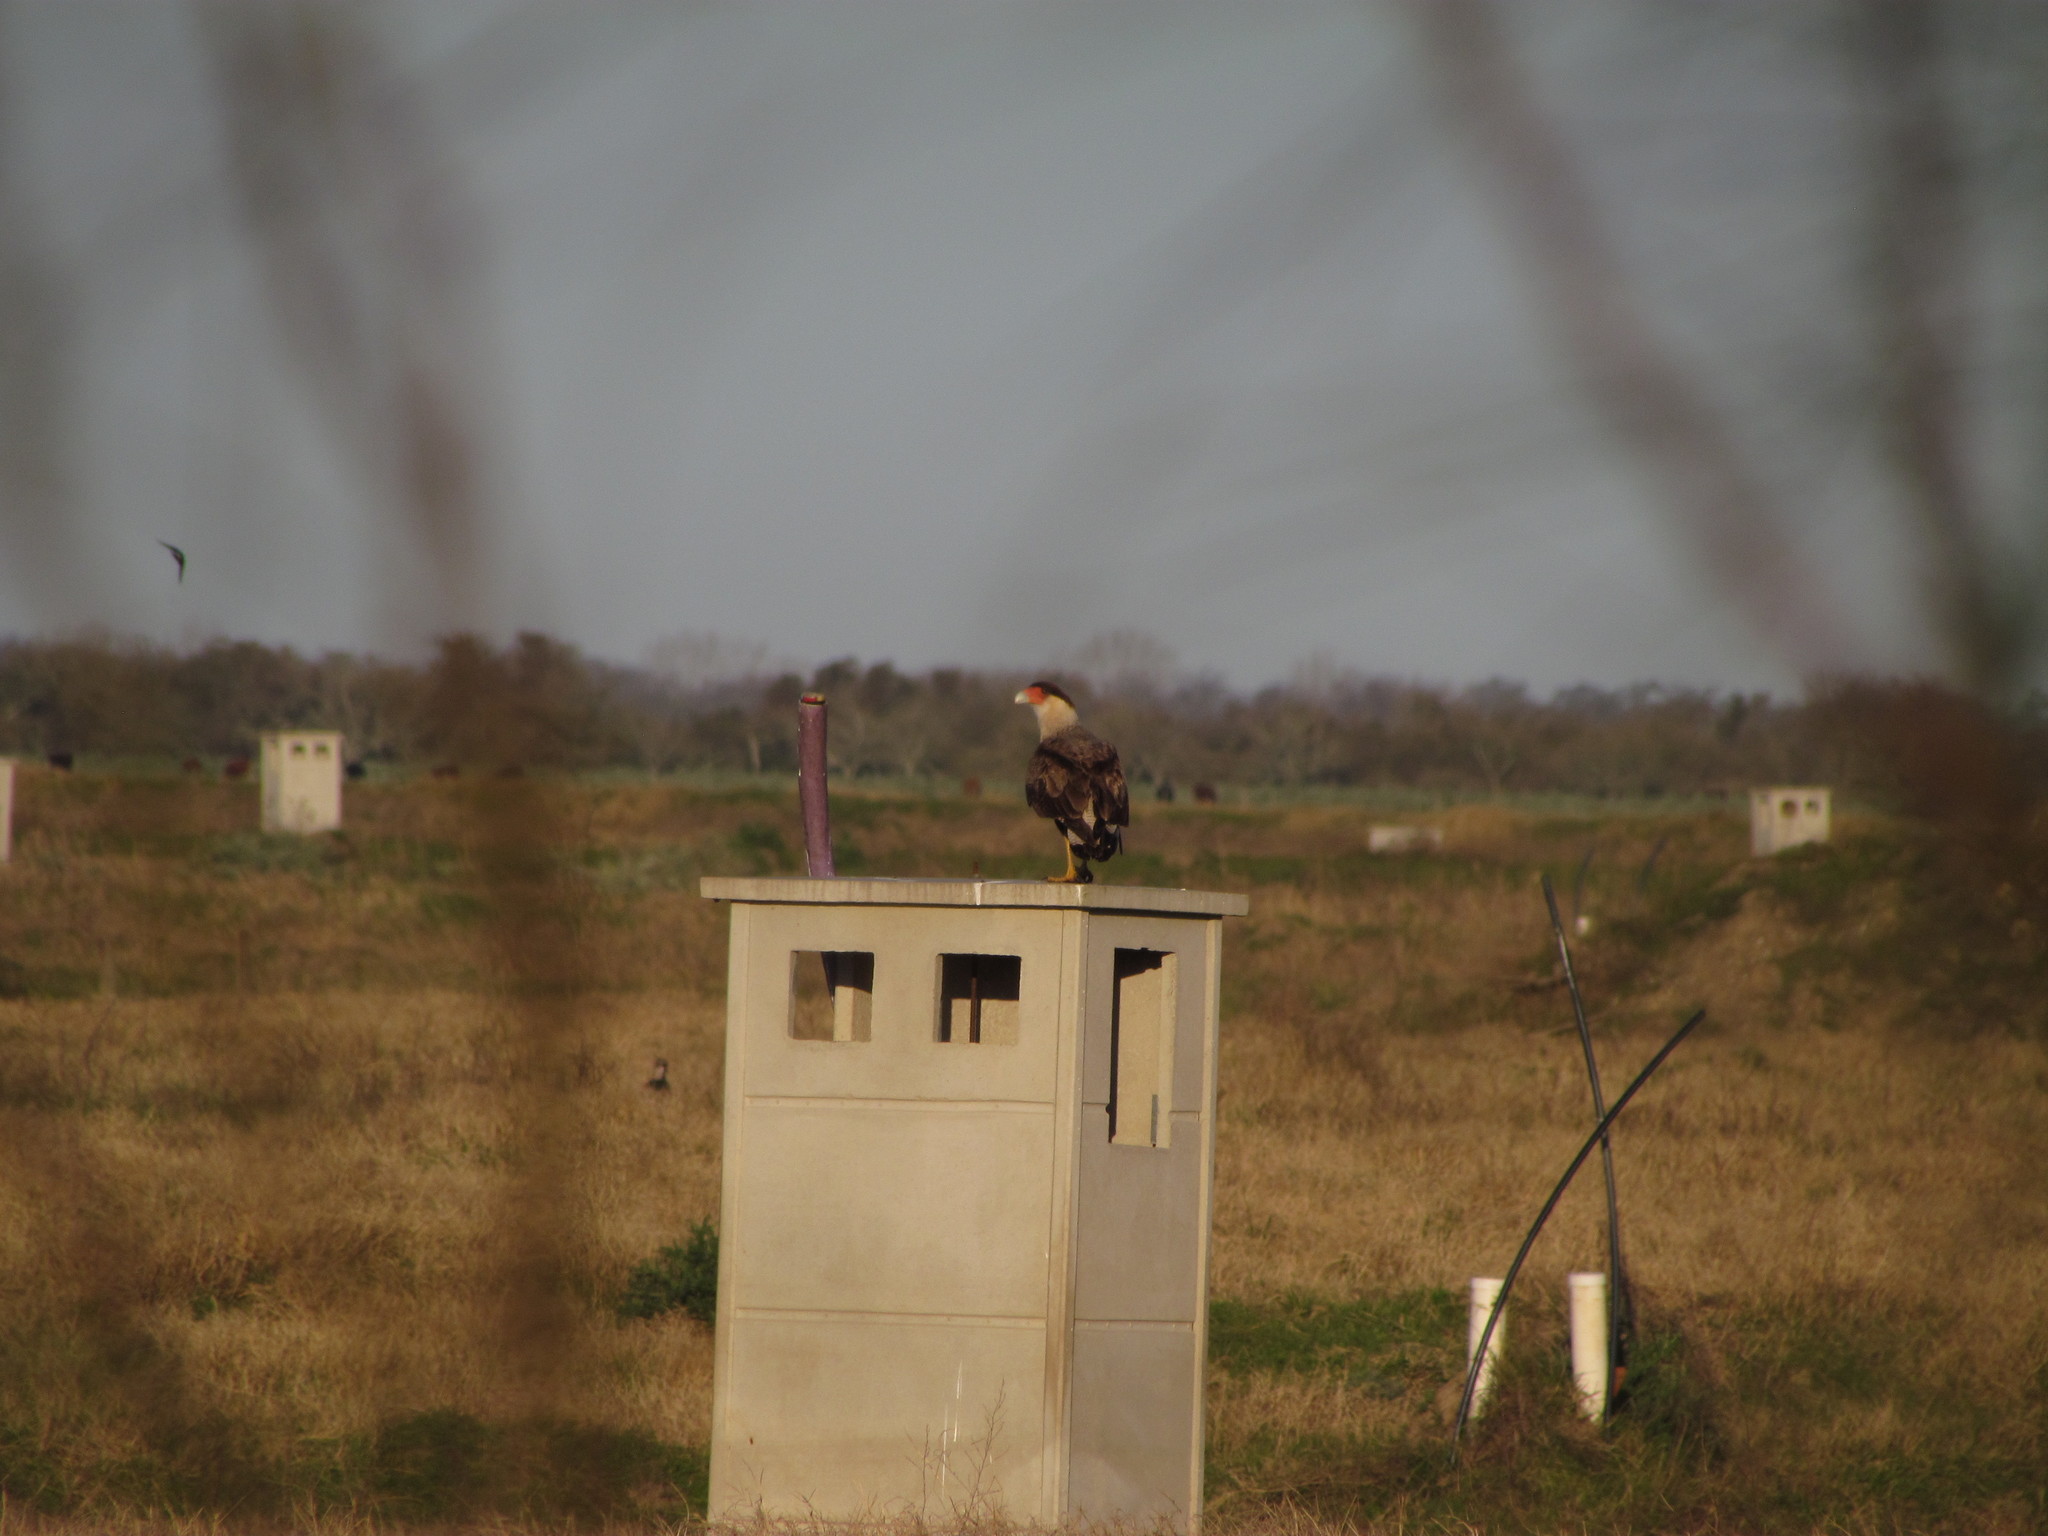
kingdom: Animalia
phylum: Chordata
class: Aves
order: Falconiformes
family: Falconidae
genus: Caracara
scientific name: Caracara plancus
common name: Southern caracara
